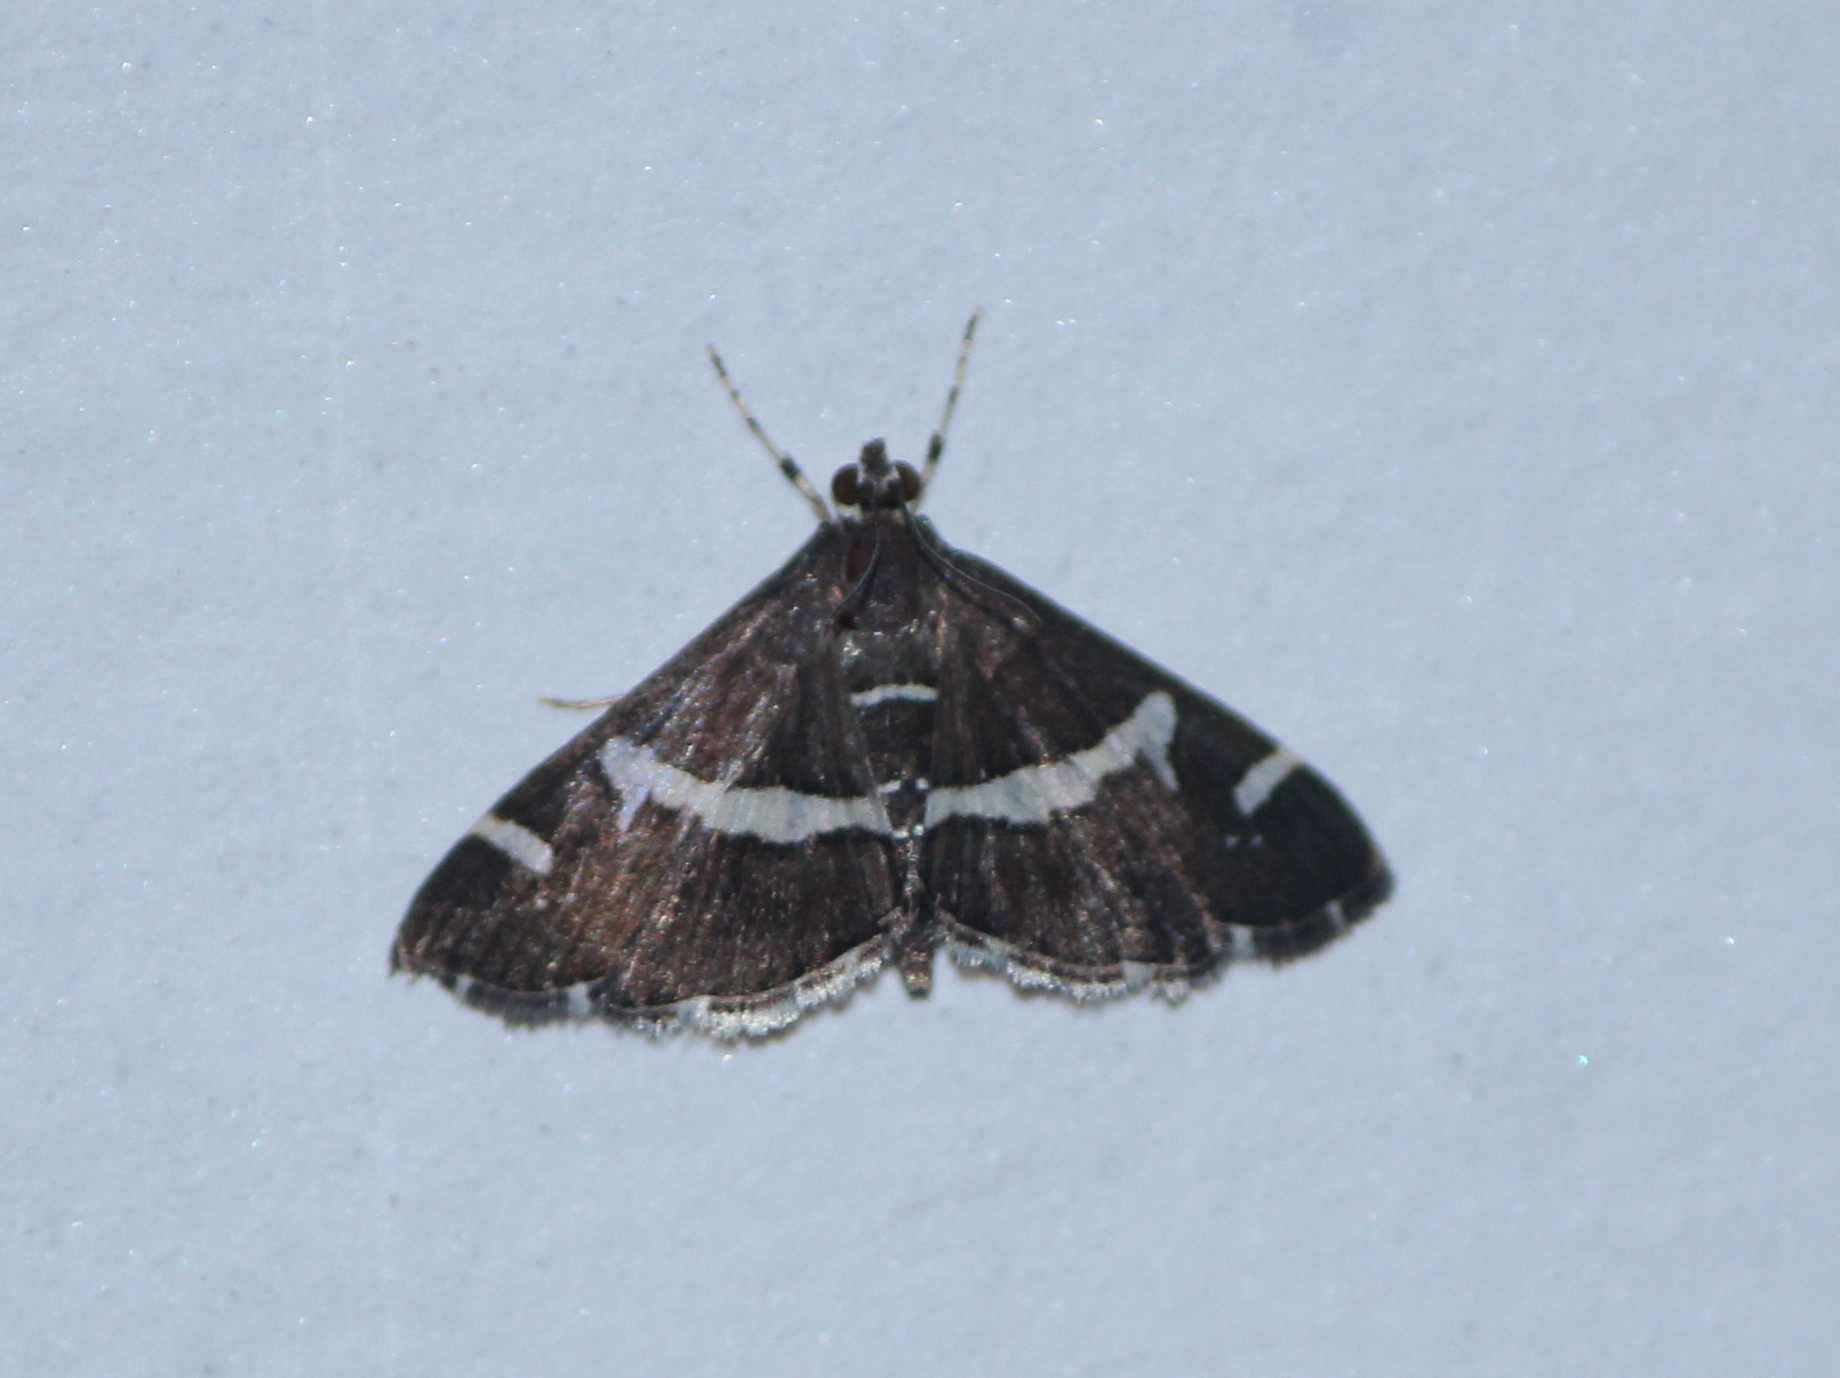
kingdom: Animalia
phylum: Arthropoda
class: Insecta
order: Lepidoptera
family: Crambidae
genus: Spoladea
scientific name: Spoladea recurvalis
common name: Beet webworm moth
